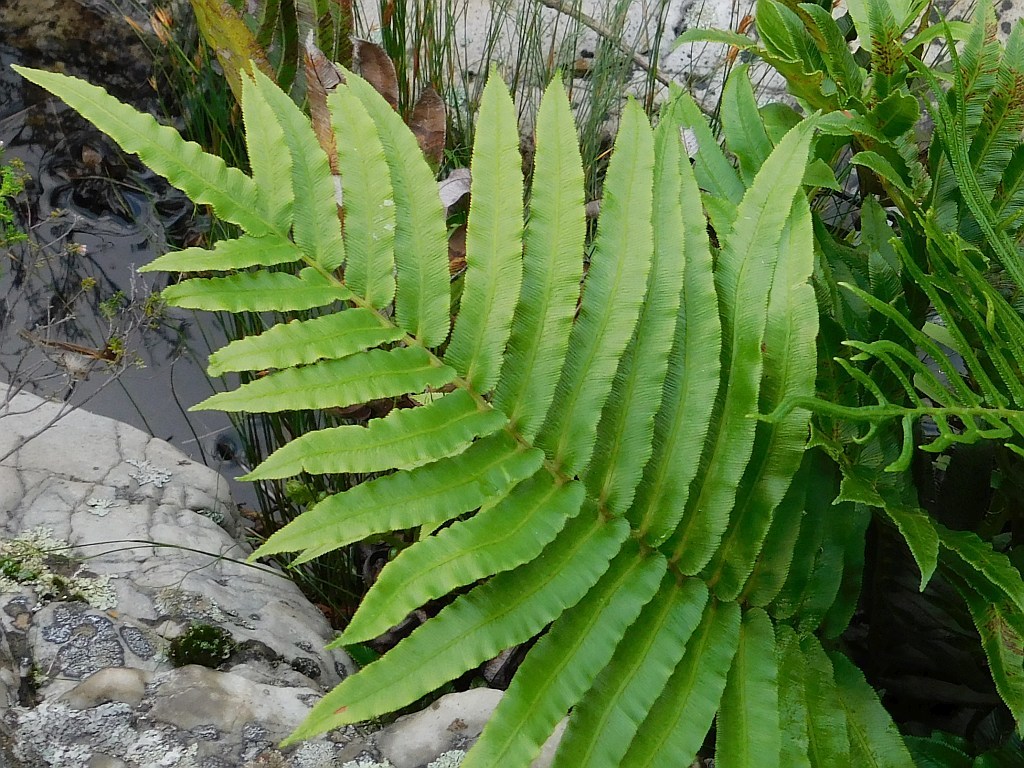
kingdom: Plantae
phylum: Tracheophyta
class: Polypodiopsida
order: Polypodiales
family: Blechnaceae
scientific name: Blechnaceae
